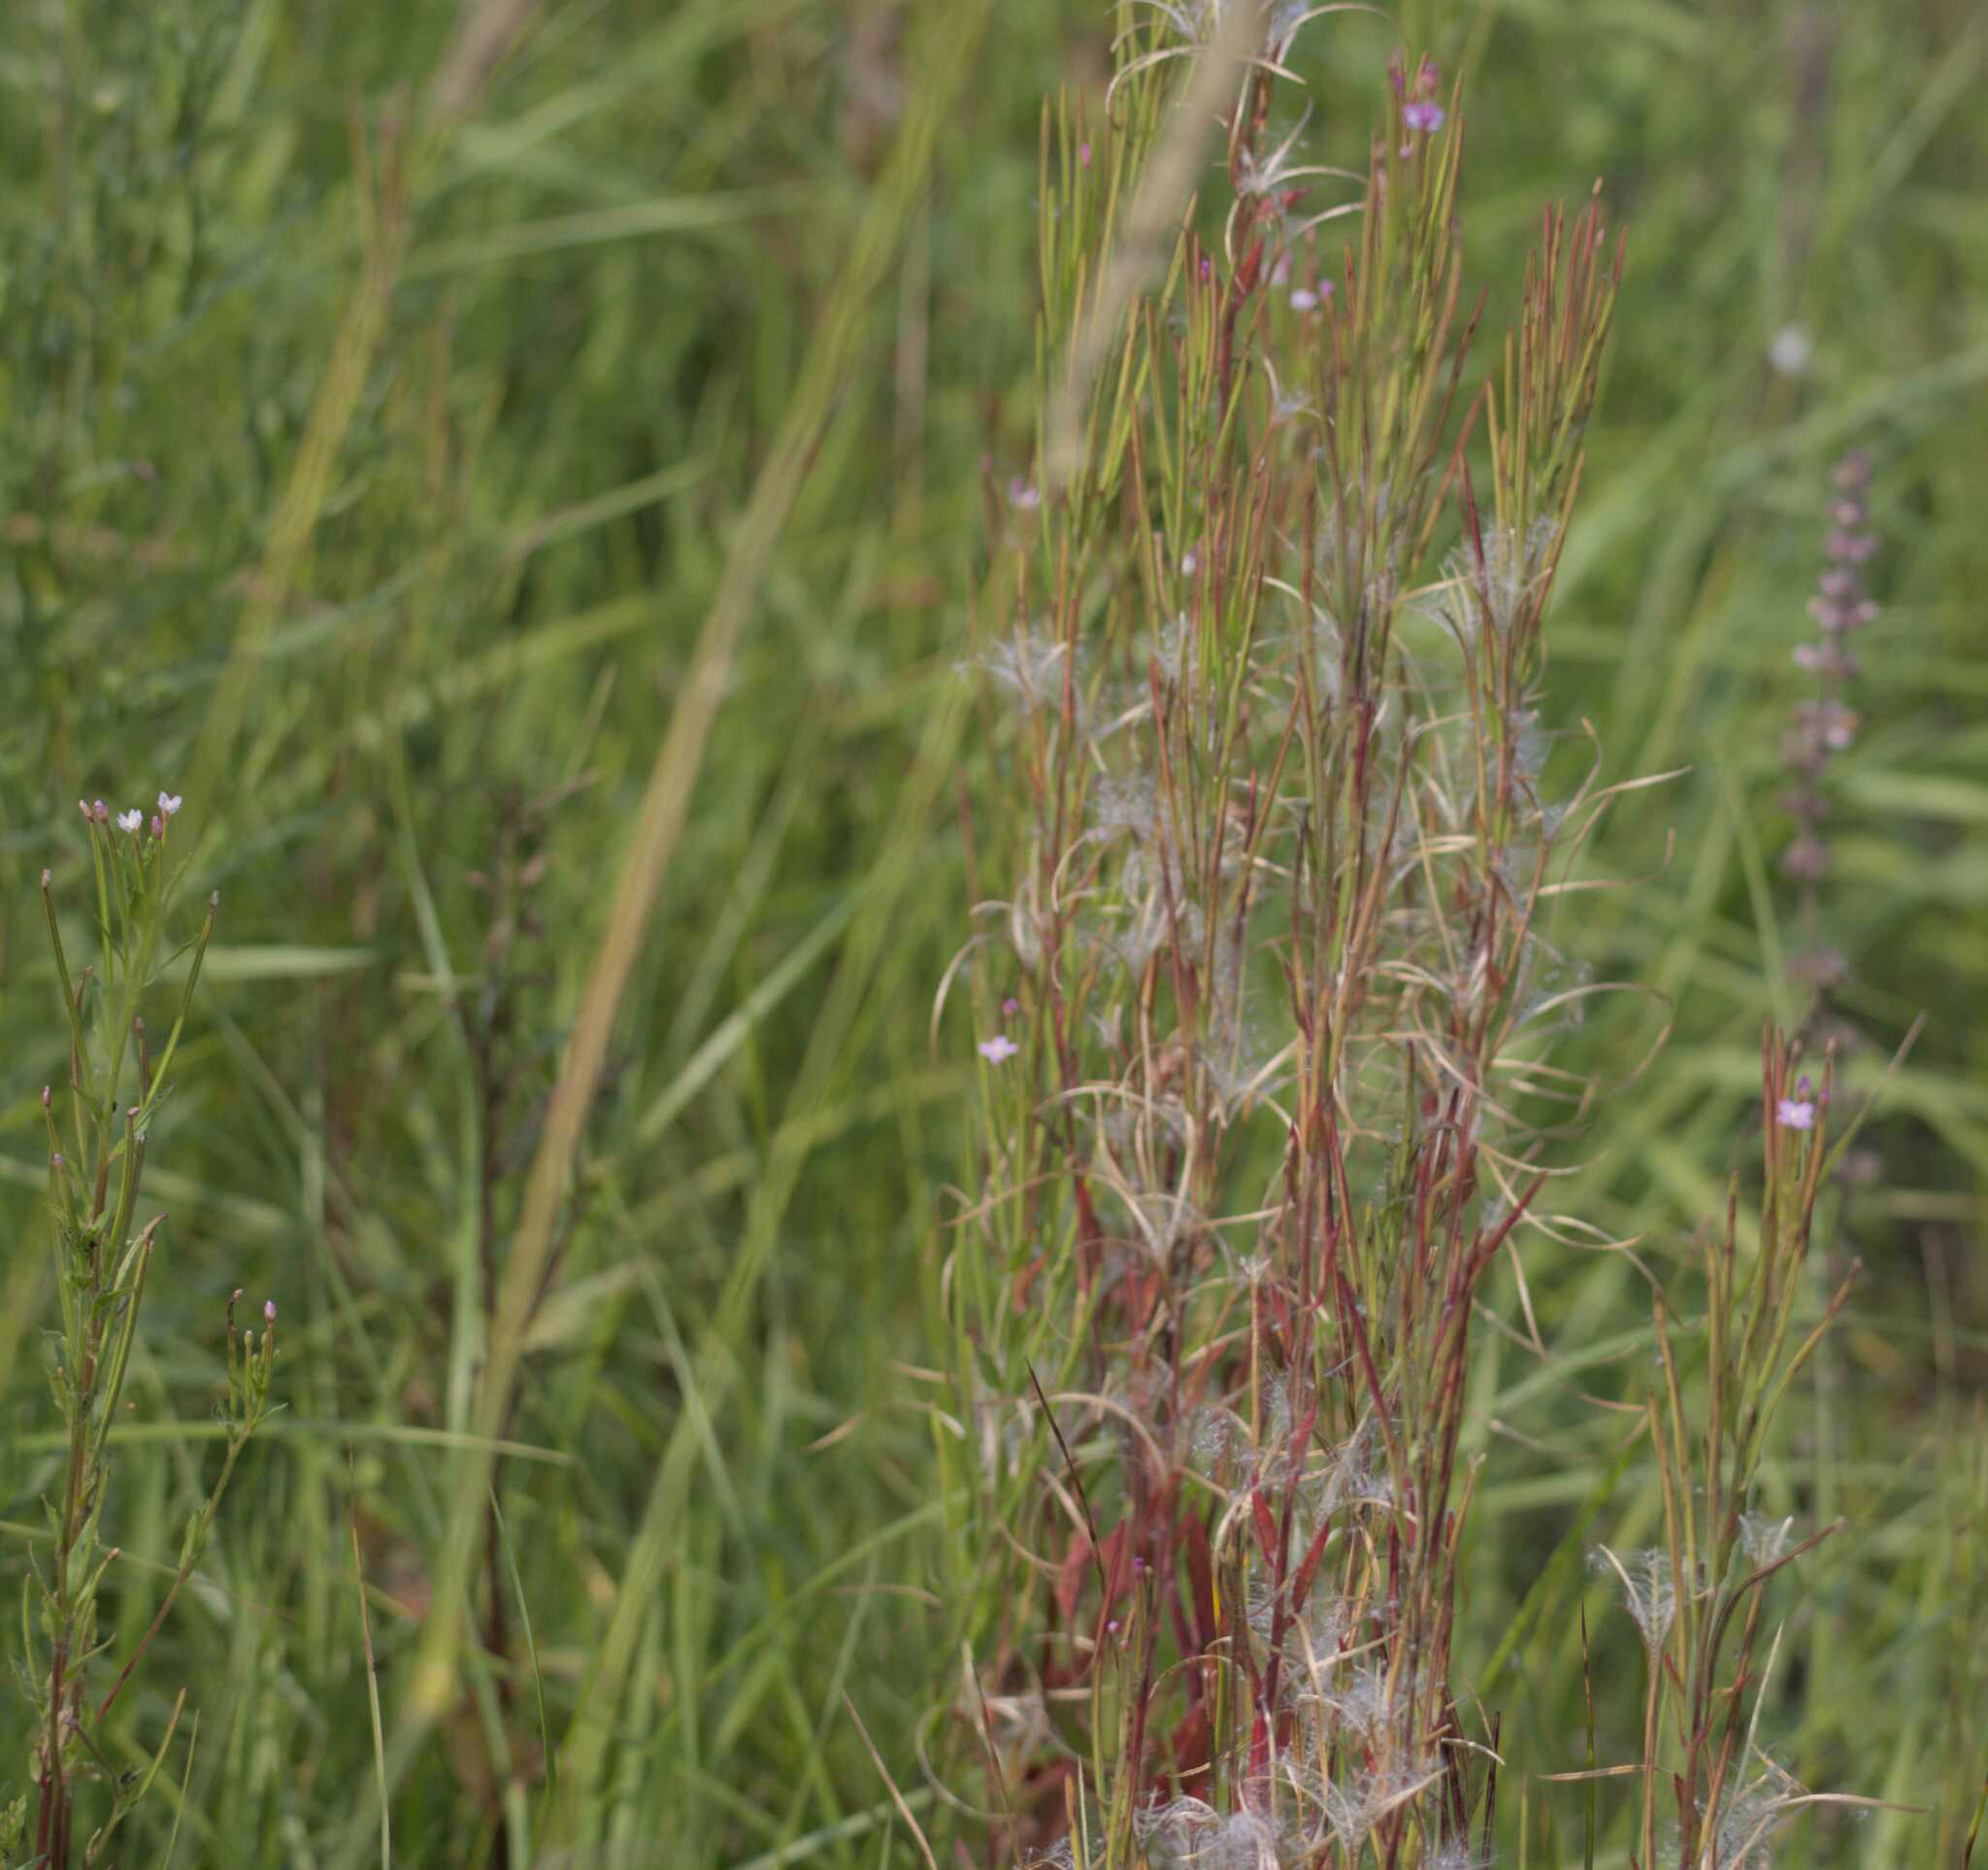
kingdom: Plantae
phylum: Tracheophyta
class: Magnoliopsida
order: Myrtales
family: Onagraceae
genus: Epilobium
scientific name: Epilobium ciliatum
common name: American willowherb
